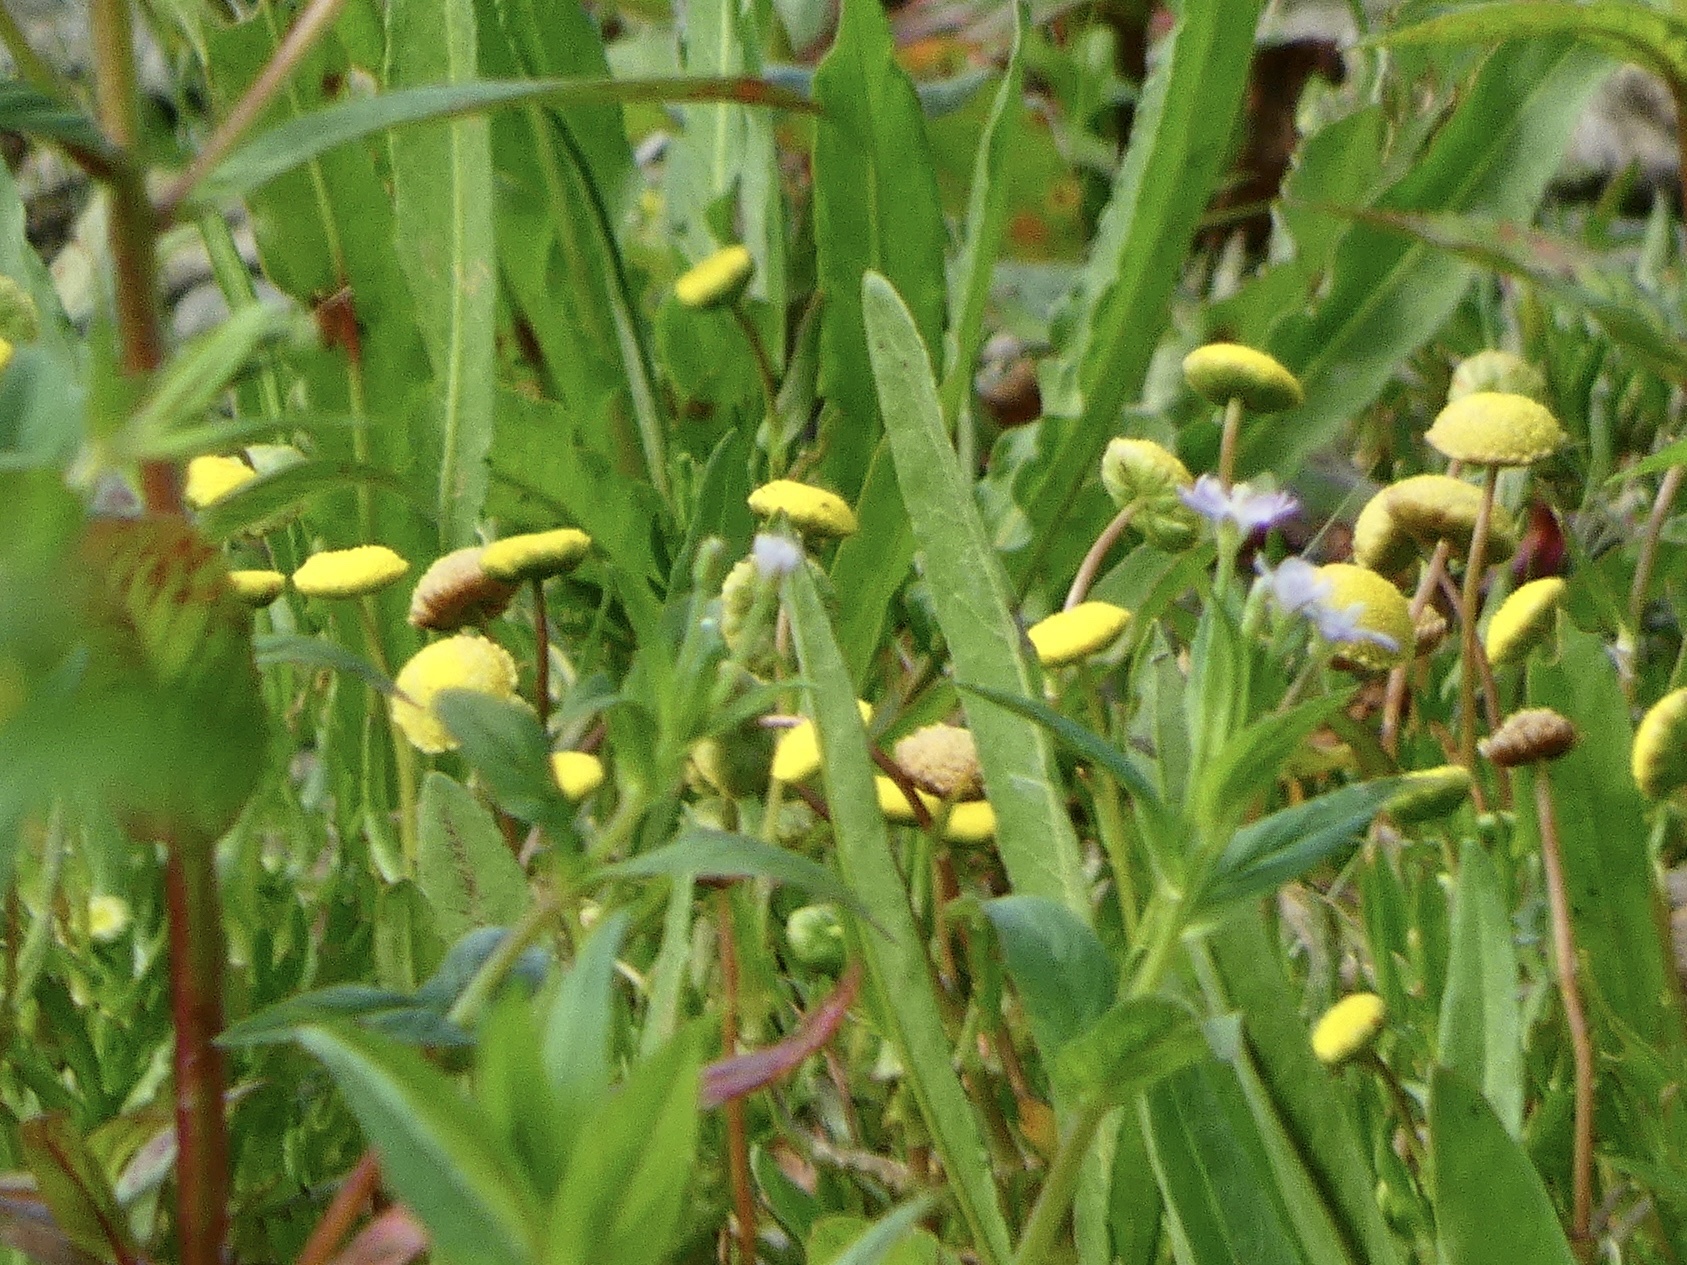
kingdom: Plantae
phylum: Tracheophyta
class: Magnoliopsida
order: Asterales
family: Asteraceae
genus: Cotula
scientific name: Cotula coronopifolia
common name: Buttonweed
